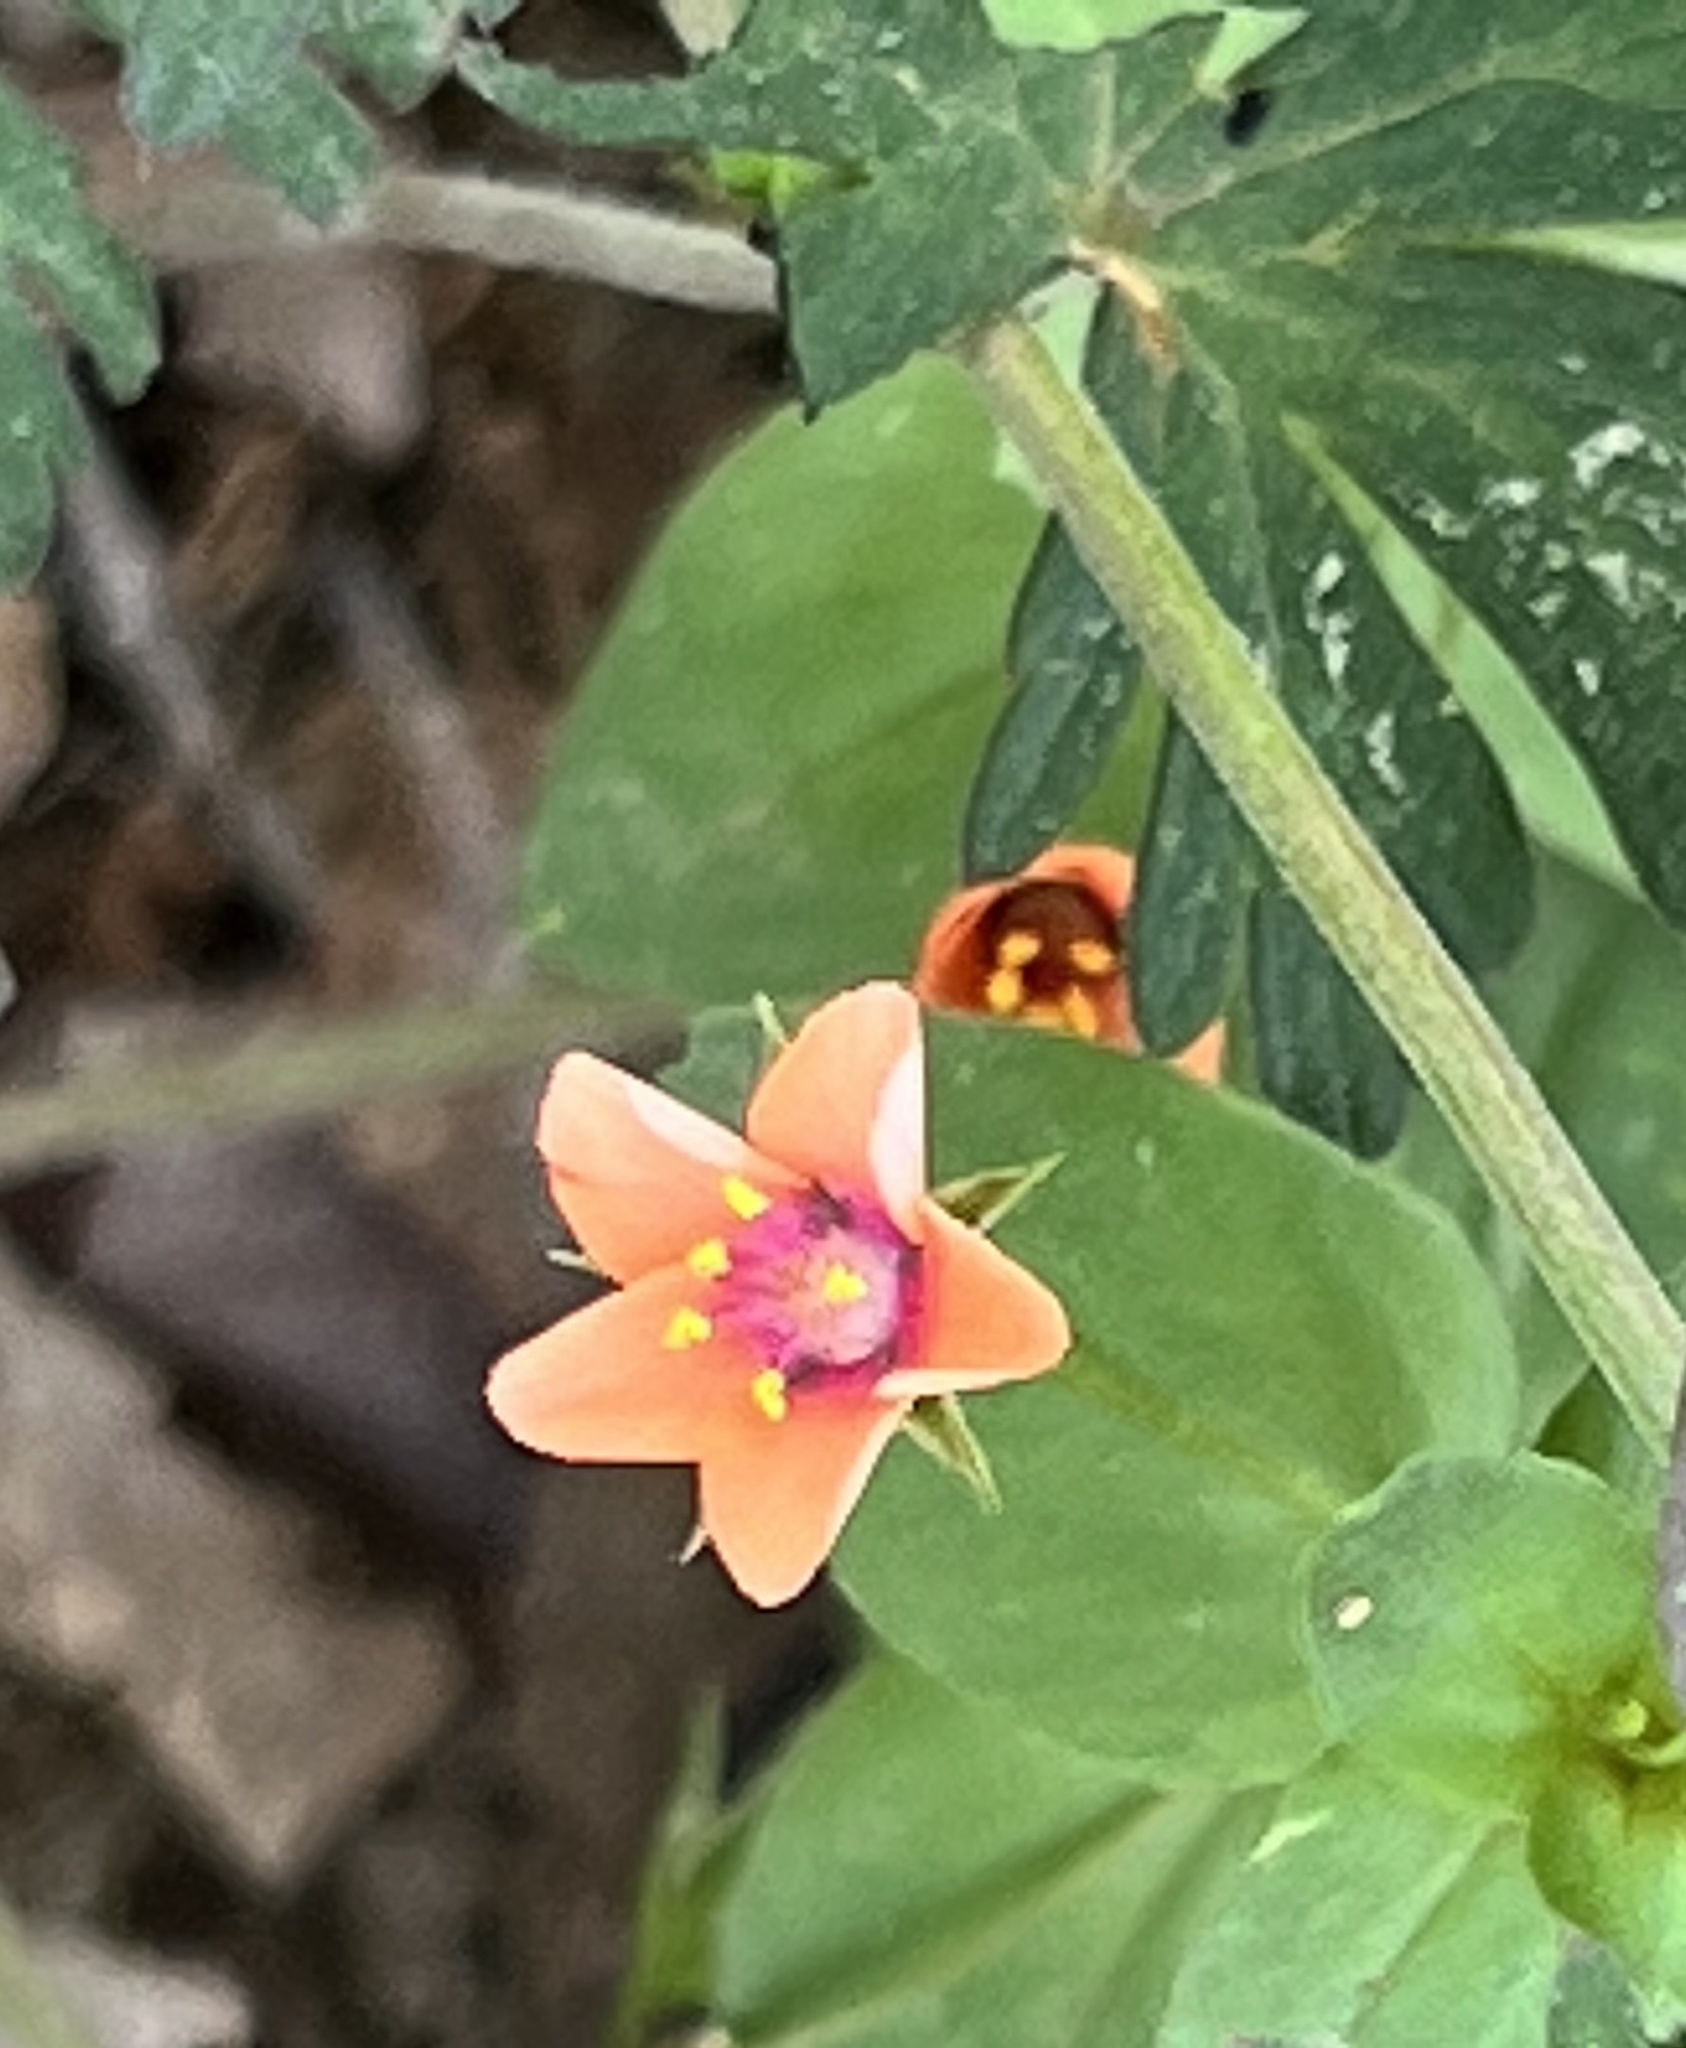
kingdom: Plantae
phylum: Tracheophyta
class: Magnoliopsida
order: Ericales
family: Primulaceae
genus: Lysimachia
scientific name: Lysimachia arvensis
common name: Scarlet pimpernel
